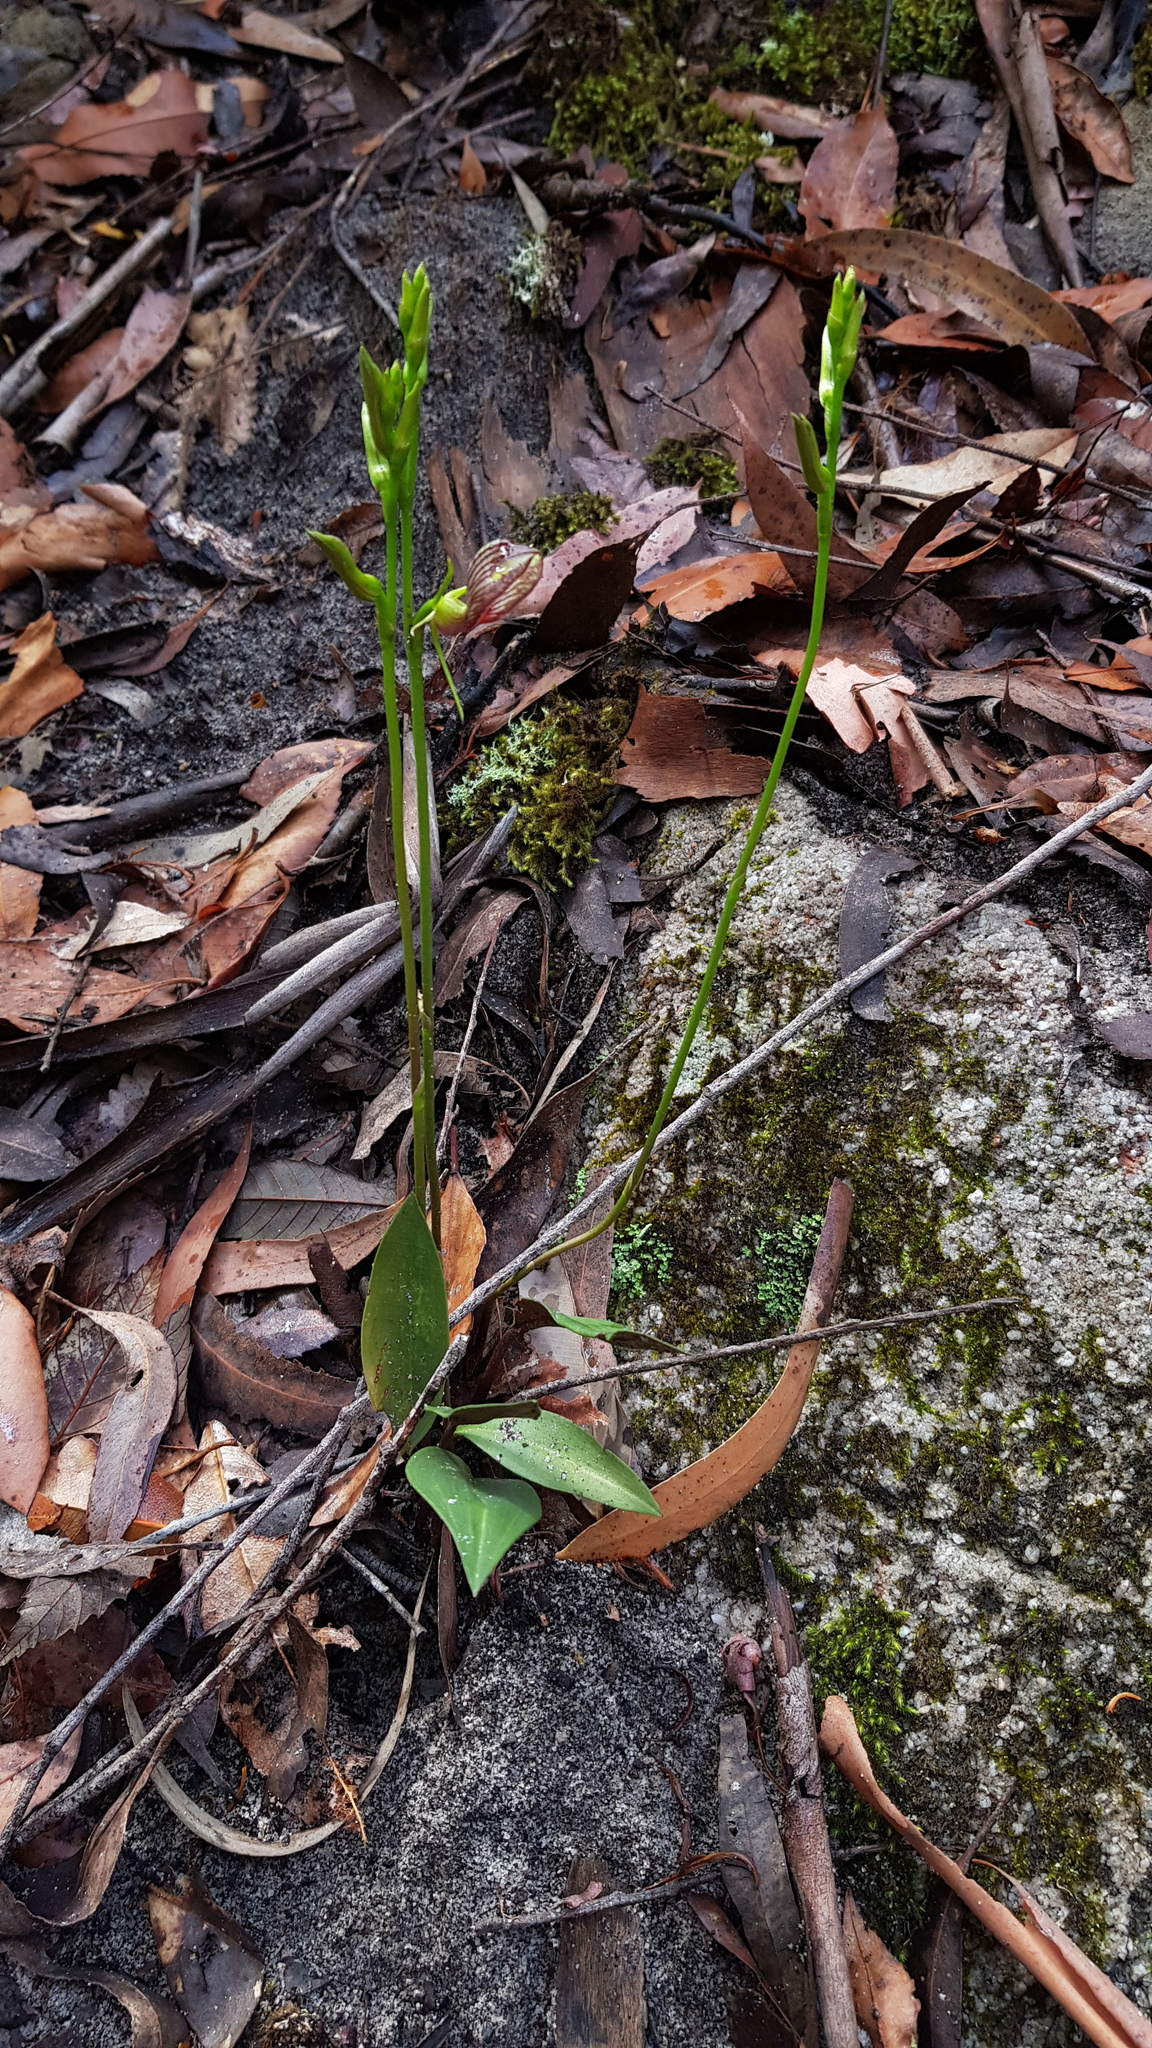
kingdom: Plantae
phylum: Tracheophyta
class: Liliopsida
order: Asparagales
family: Orchidaceae
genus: Cryptostylis
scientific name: Cryptostylis erecta
